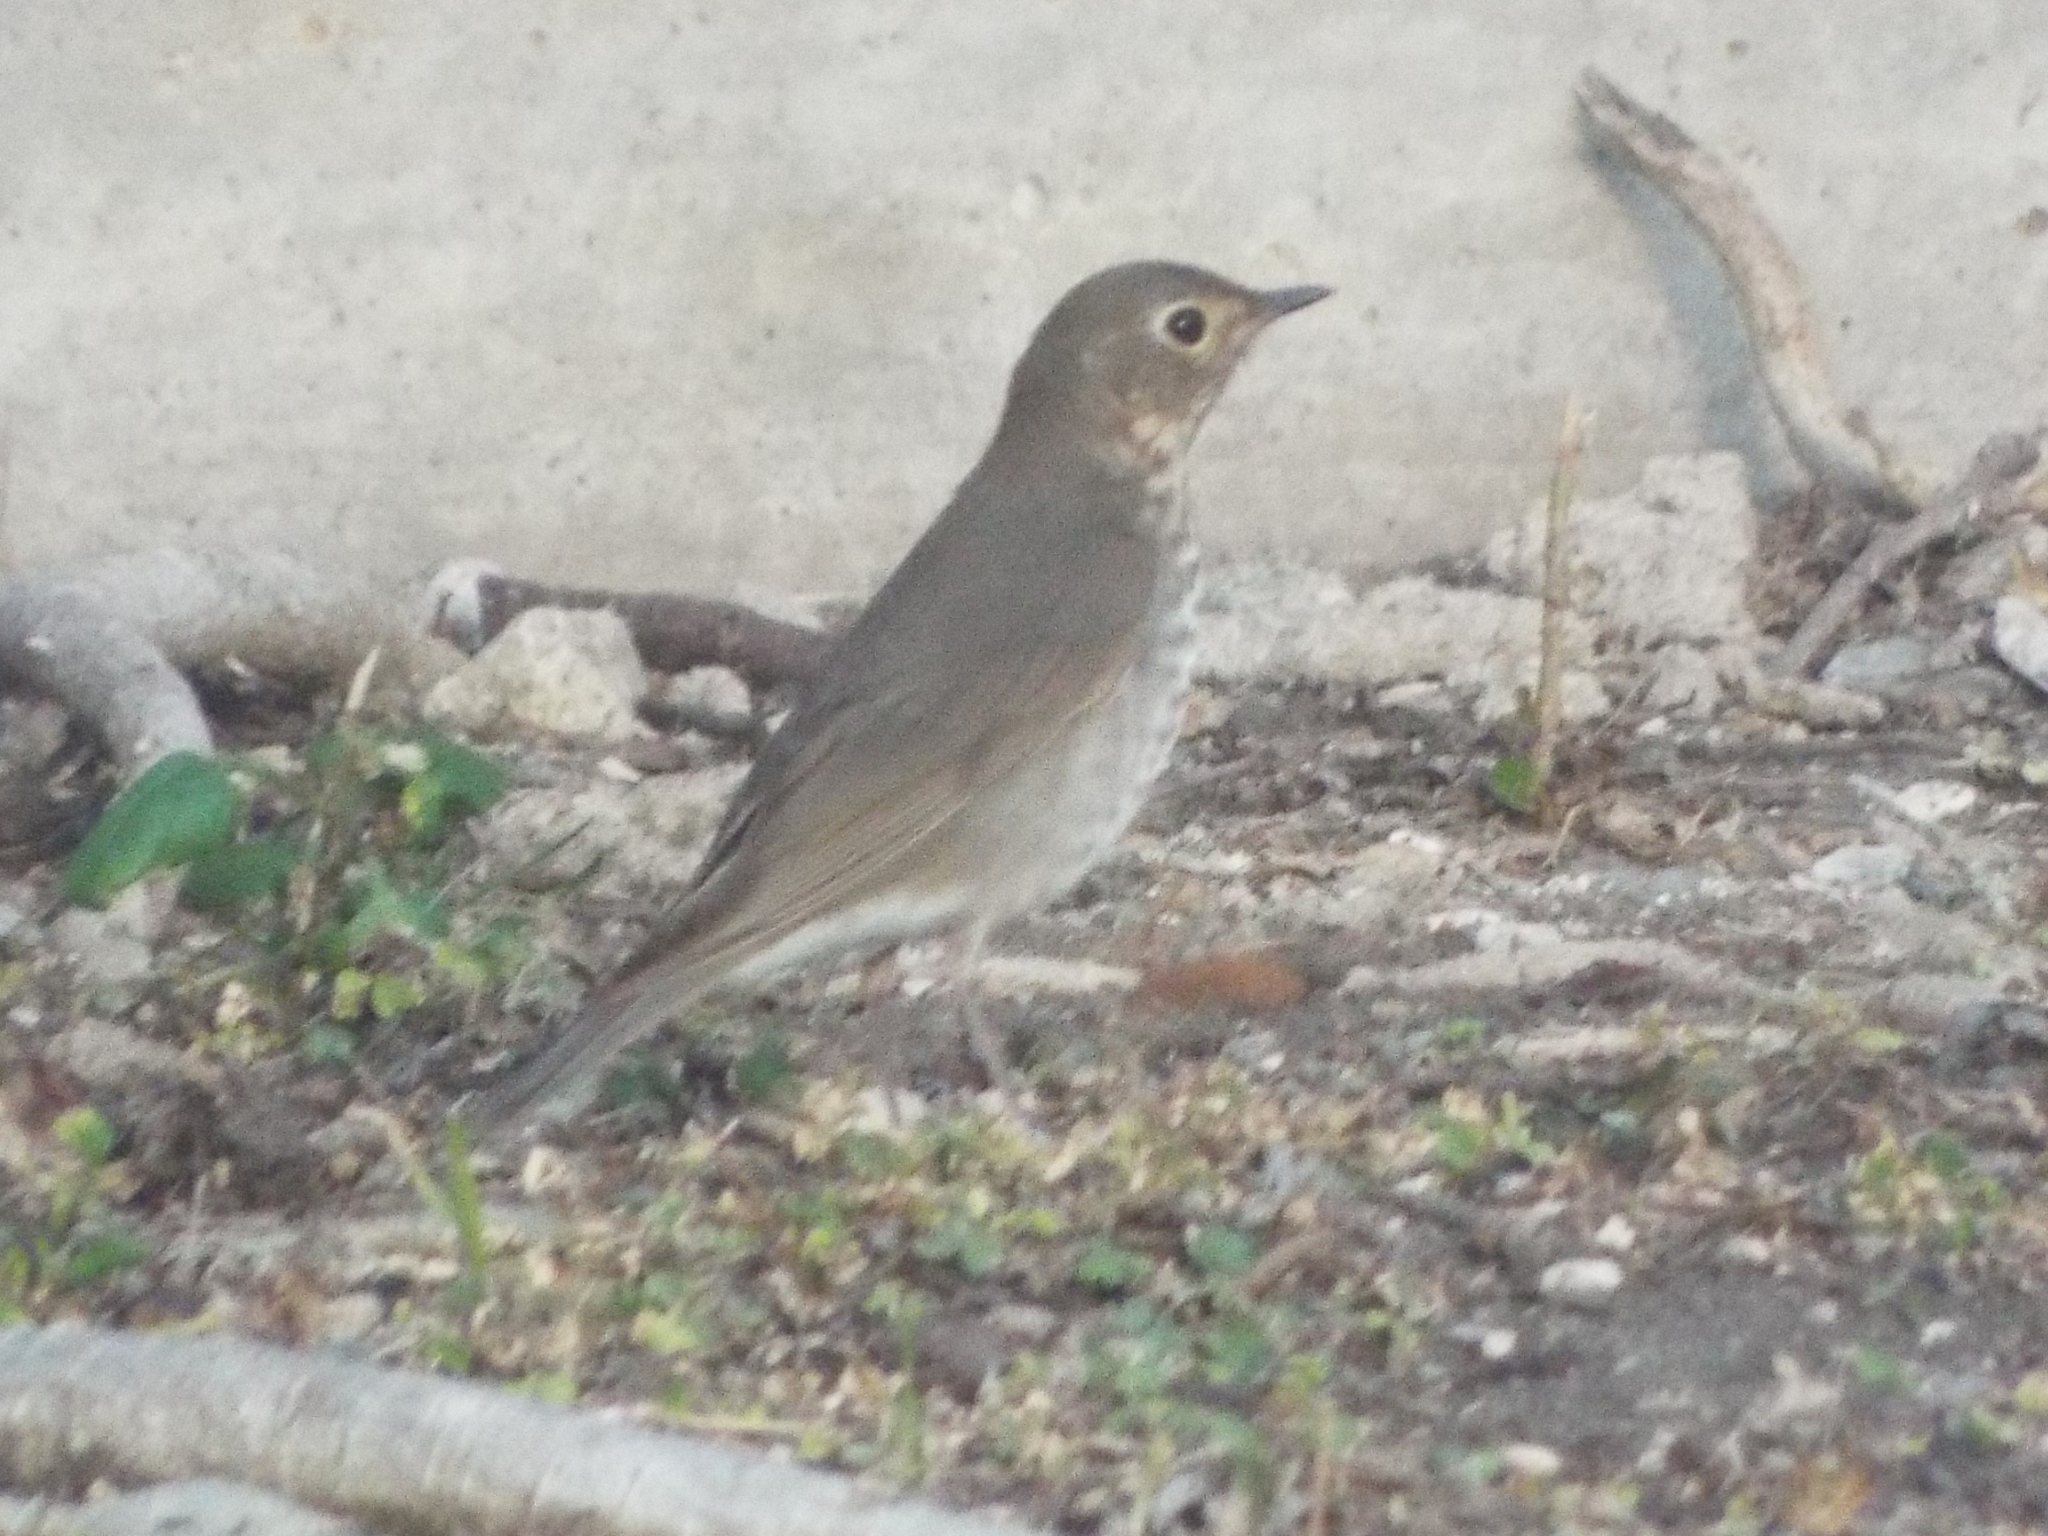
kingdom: Animalia
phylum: Chordata
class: Aves
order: Passeriformes
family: Turdidae
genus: Catharus
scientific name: Catharus ustulatus
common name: Swainson's thrush
